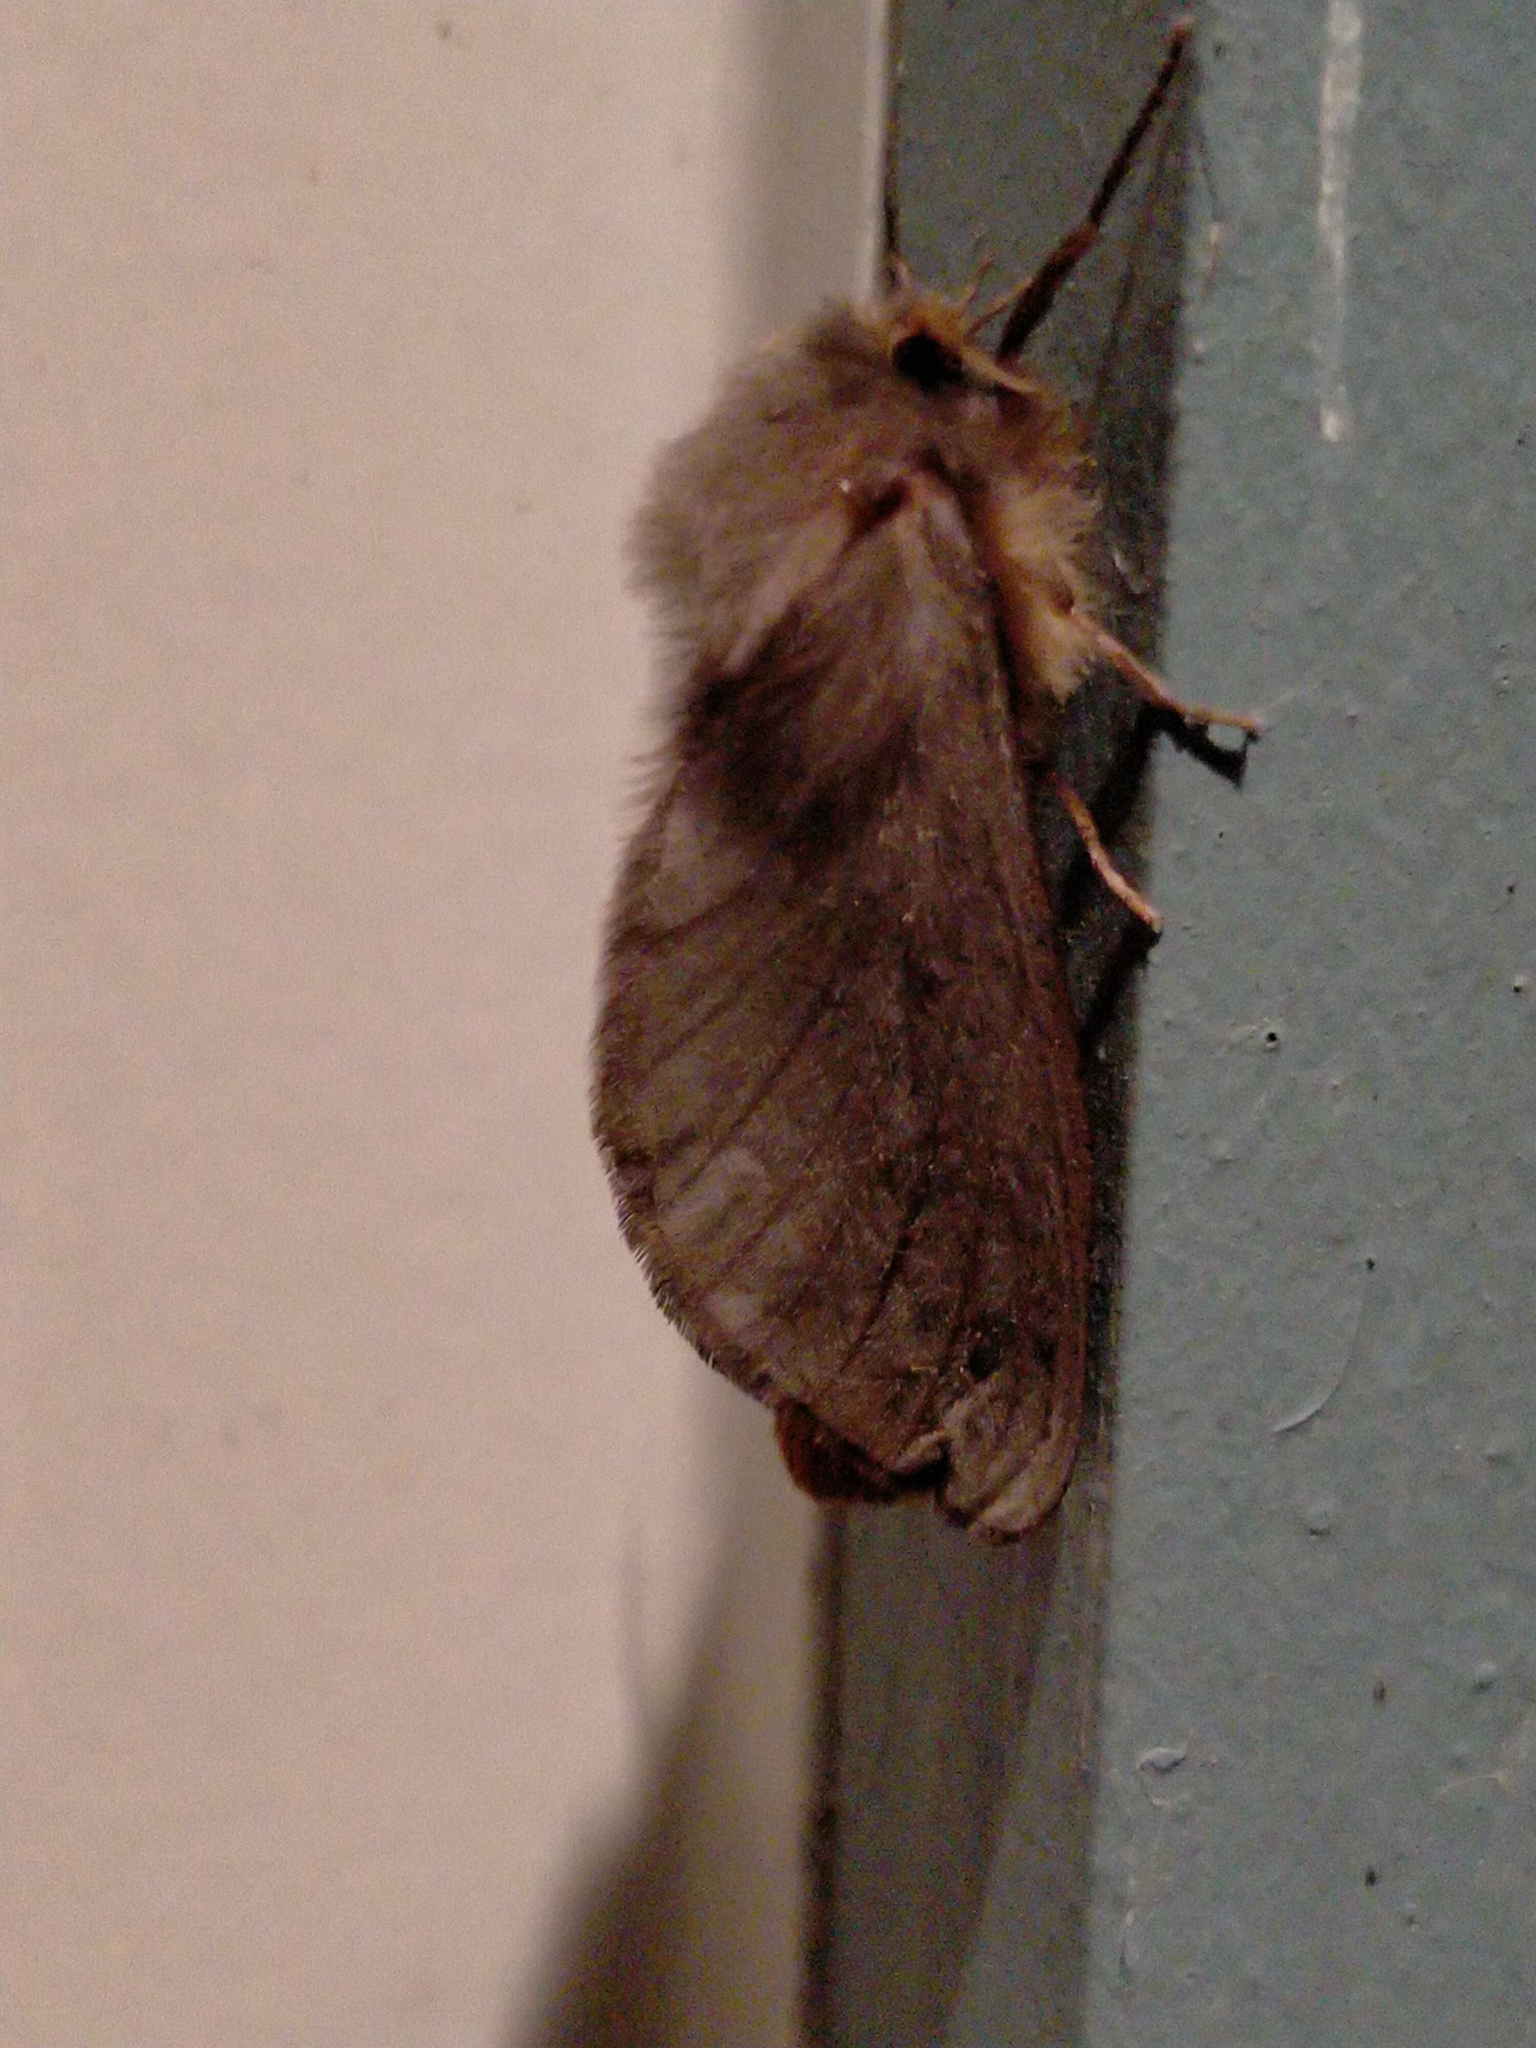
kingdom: Animalia
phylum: Arthropoda
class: Insecta
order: Lepidoptera
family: Hepialidae
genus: Cladoxycanus
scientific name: Cladoxycanus minos
